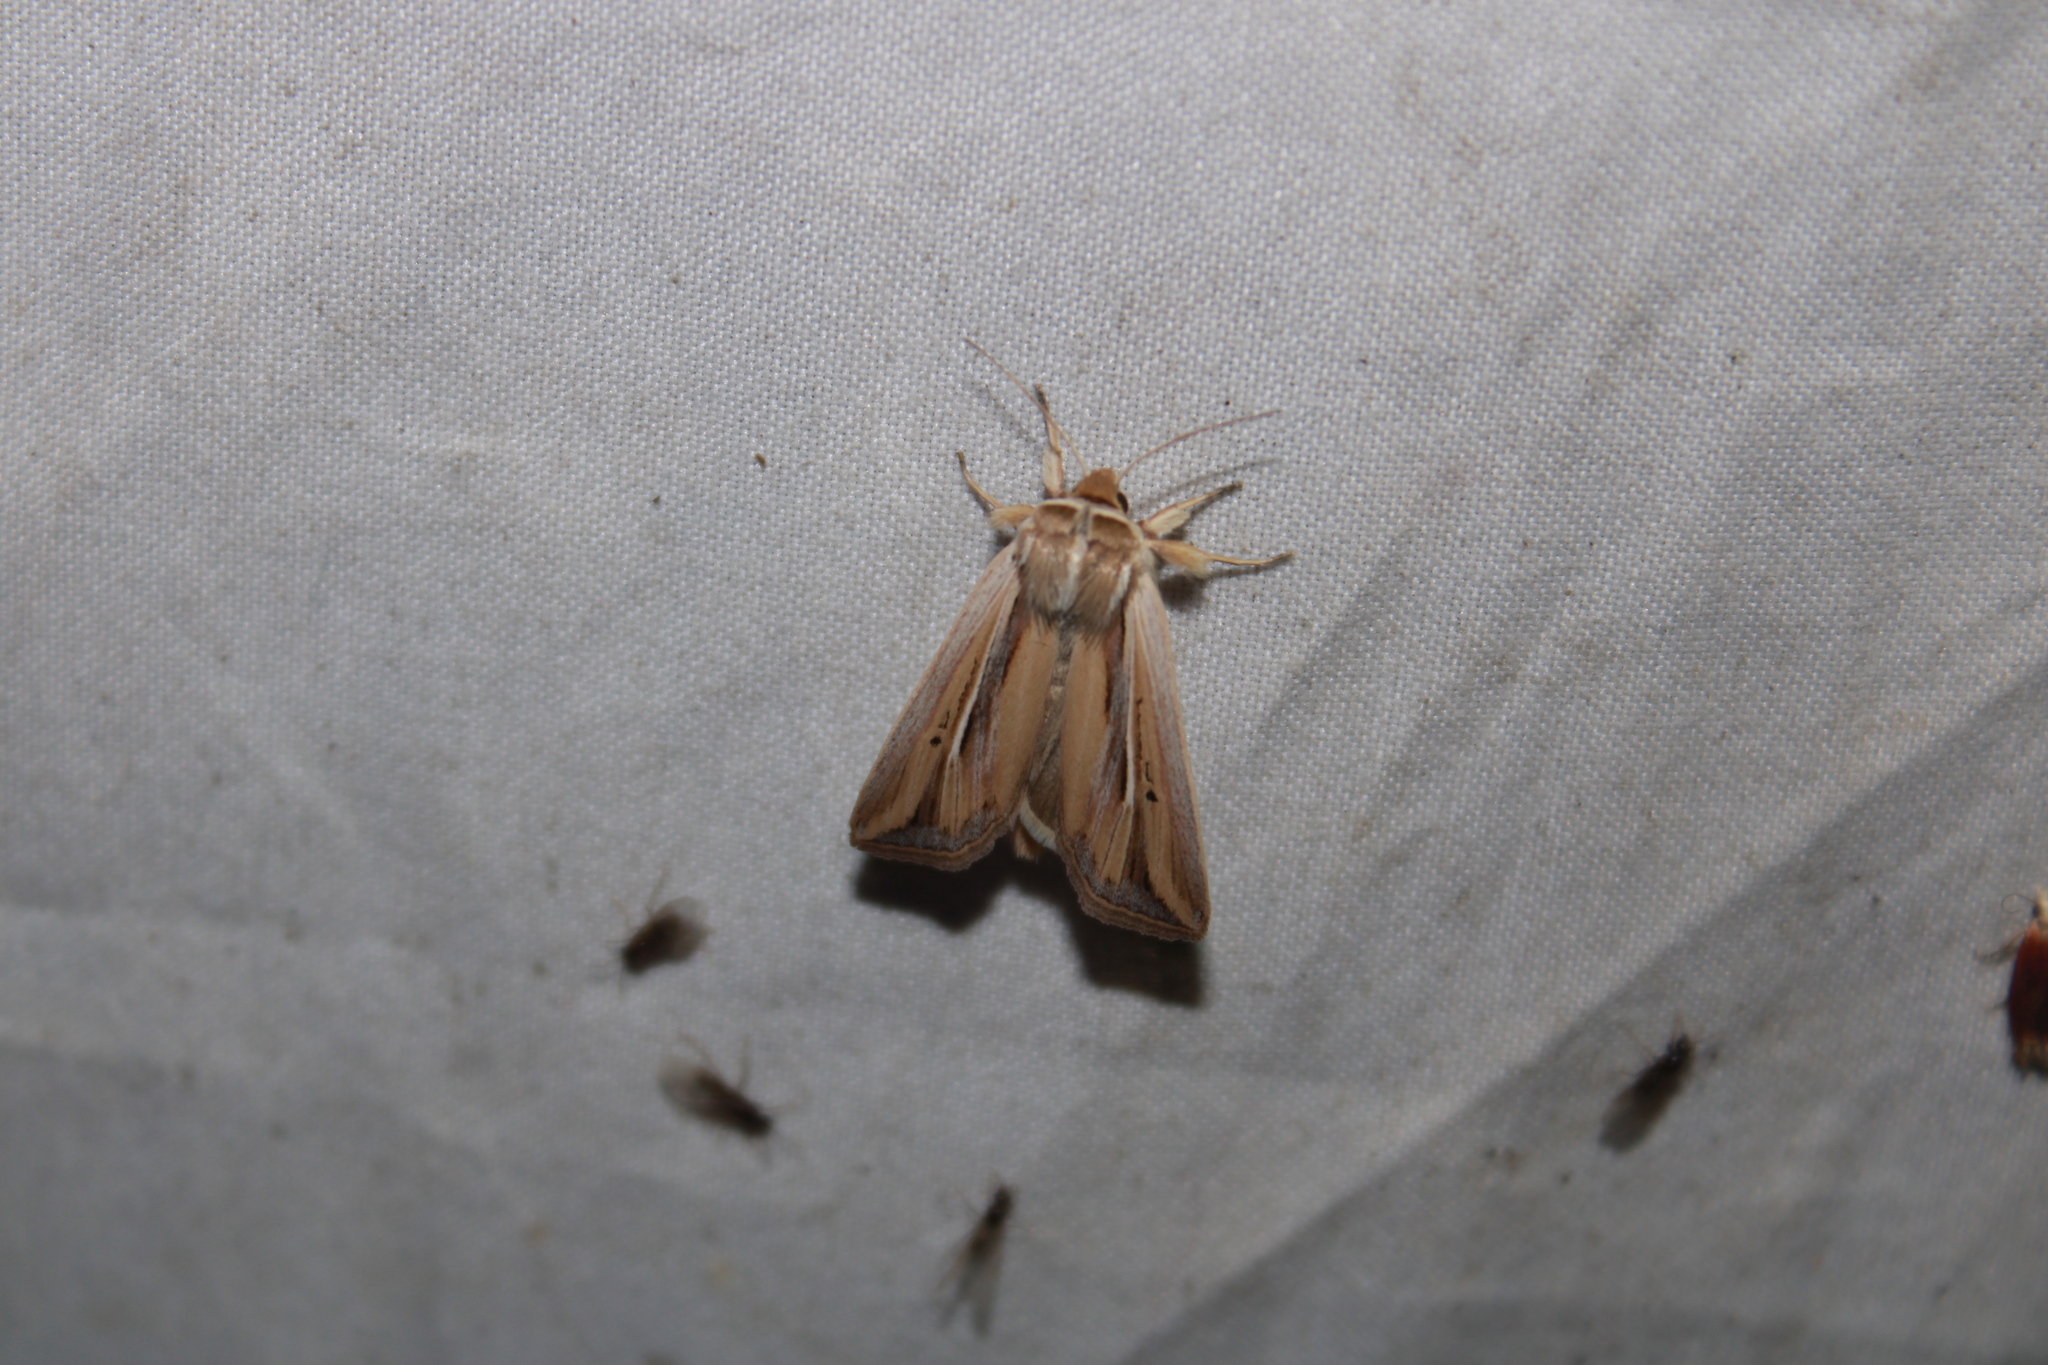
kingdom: Animalia
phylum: Arthropoda
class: Insecta
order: Lepidoptera
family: Noctuidae
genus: Dargida
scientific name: Dargida diffusa
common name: Wheat head armyworm
